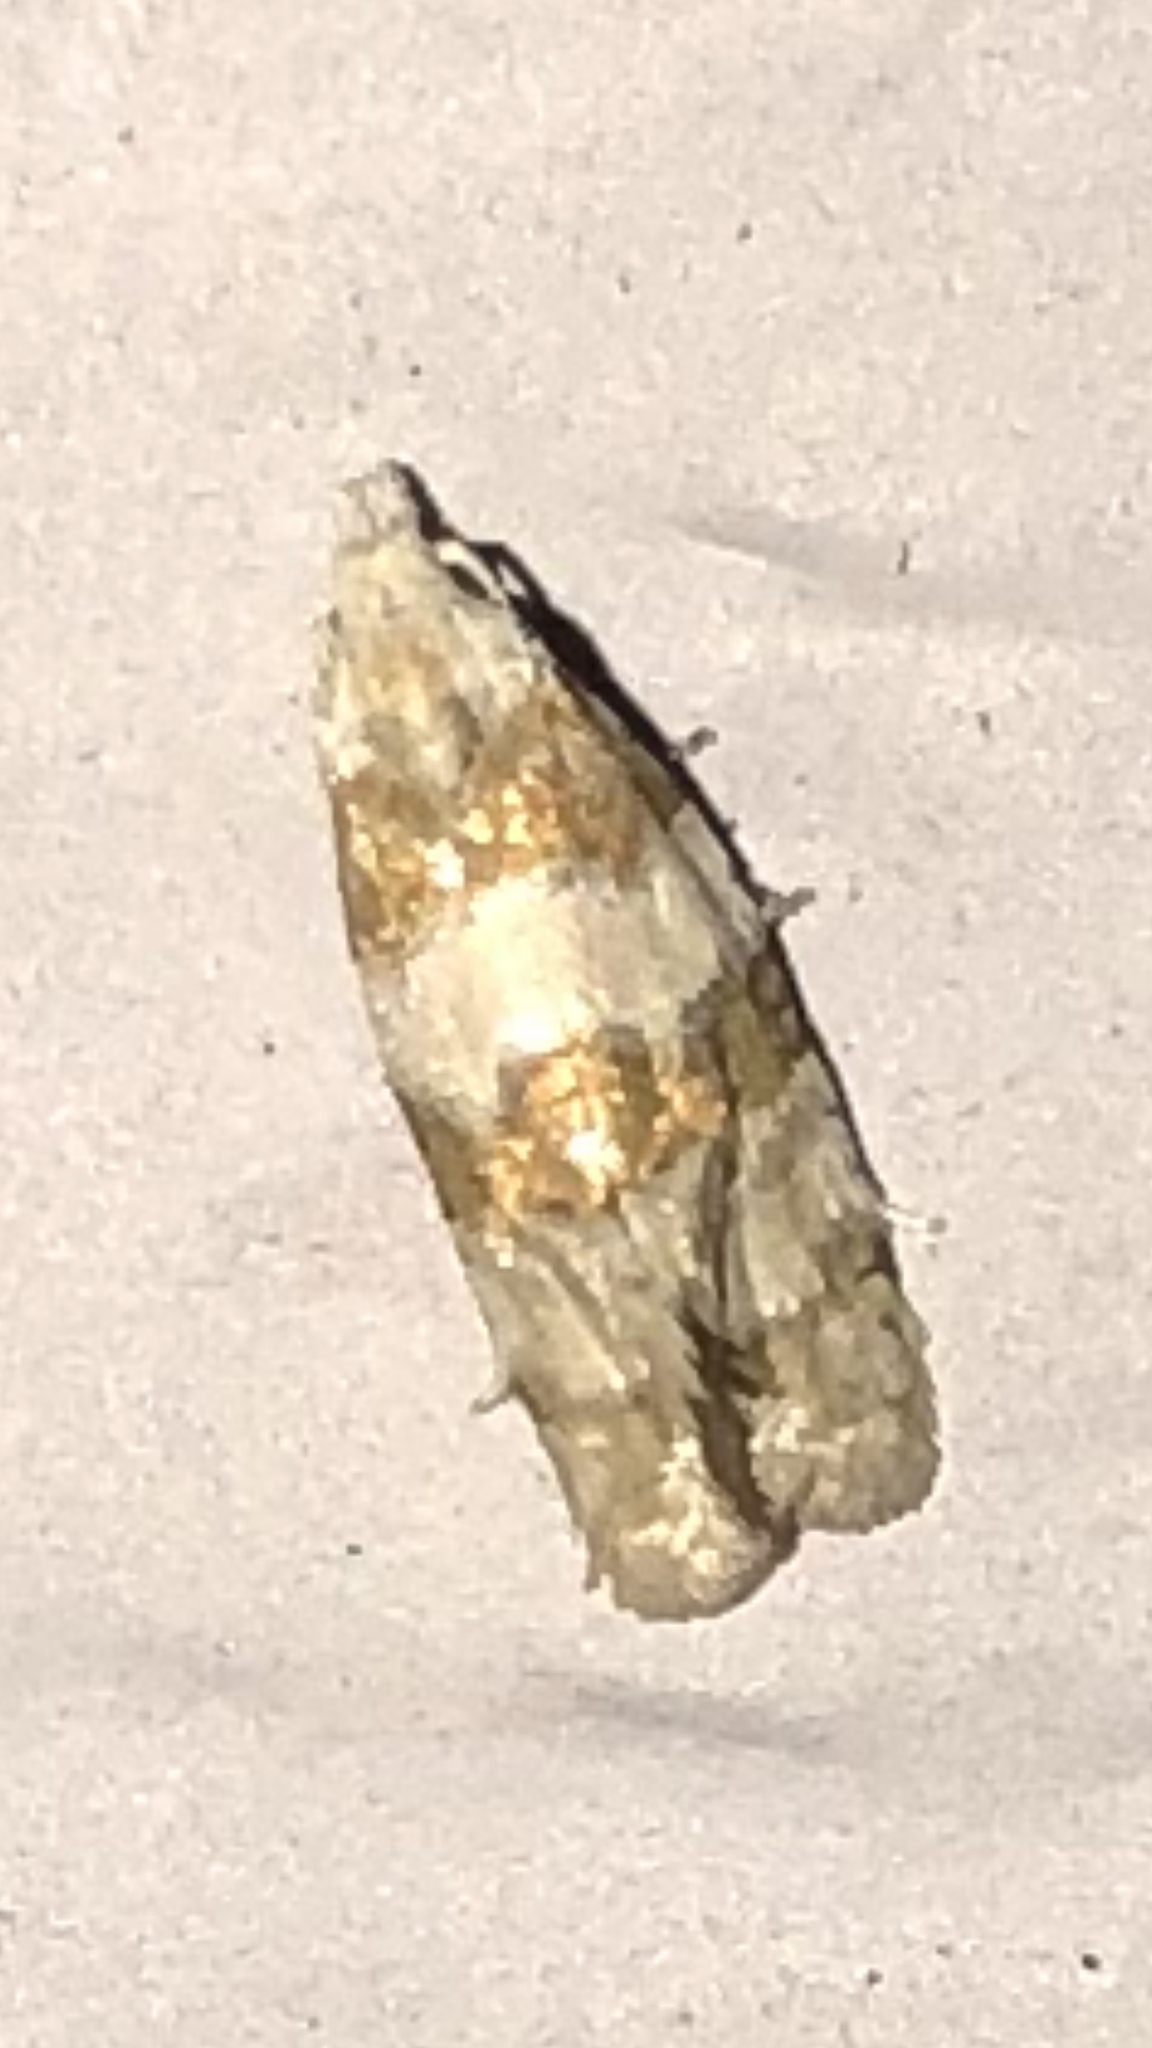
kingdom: Animalia
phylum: Arthropoda
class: Insecta
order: Lepidoptera
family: Tortricidae
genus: Aethes
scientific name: Aethes argentilimitana
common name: Silver-bordered aethes
